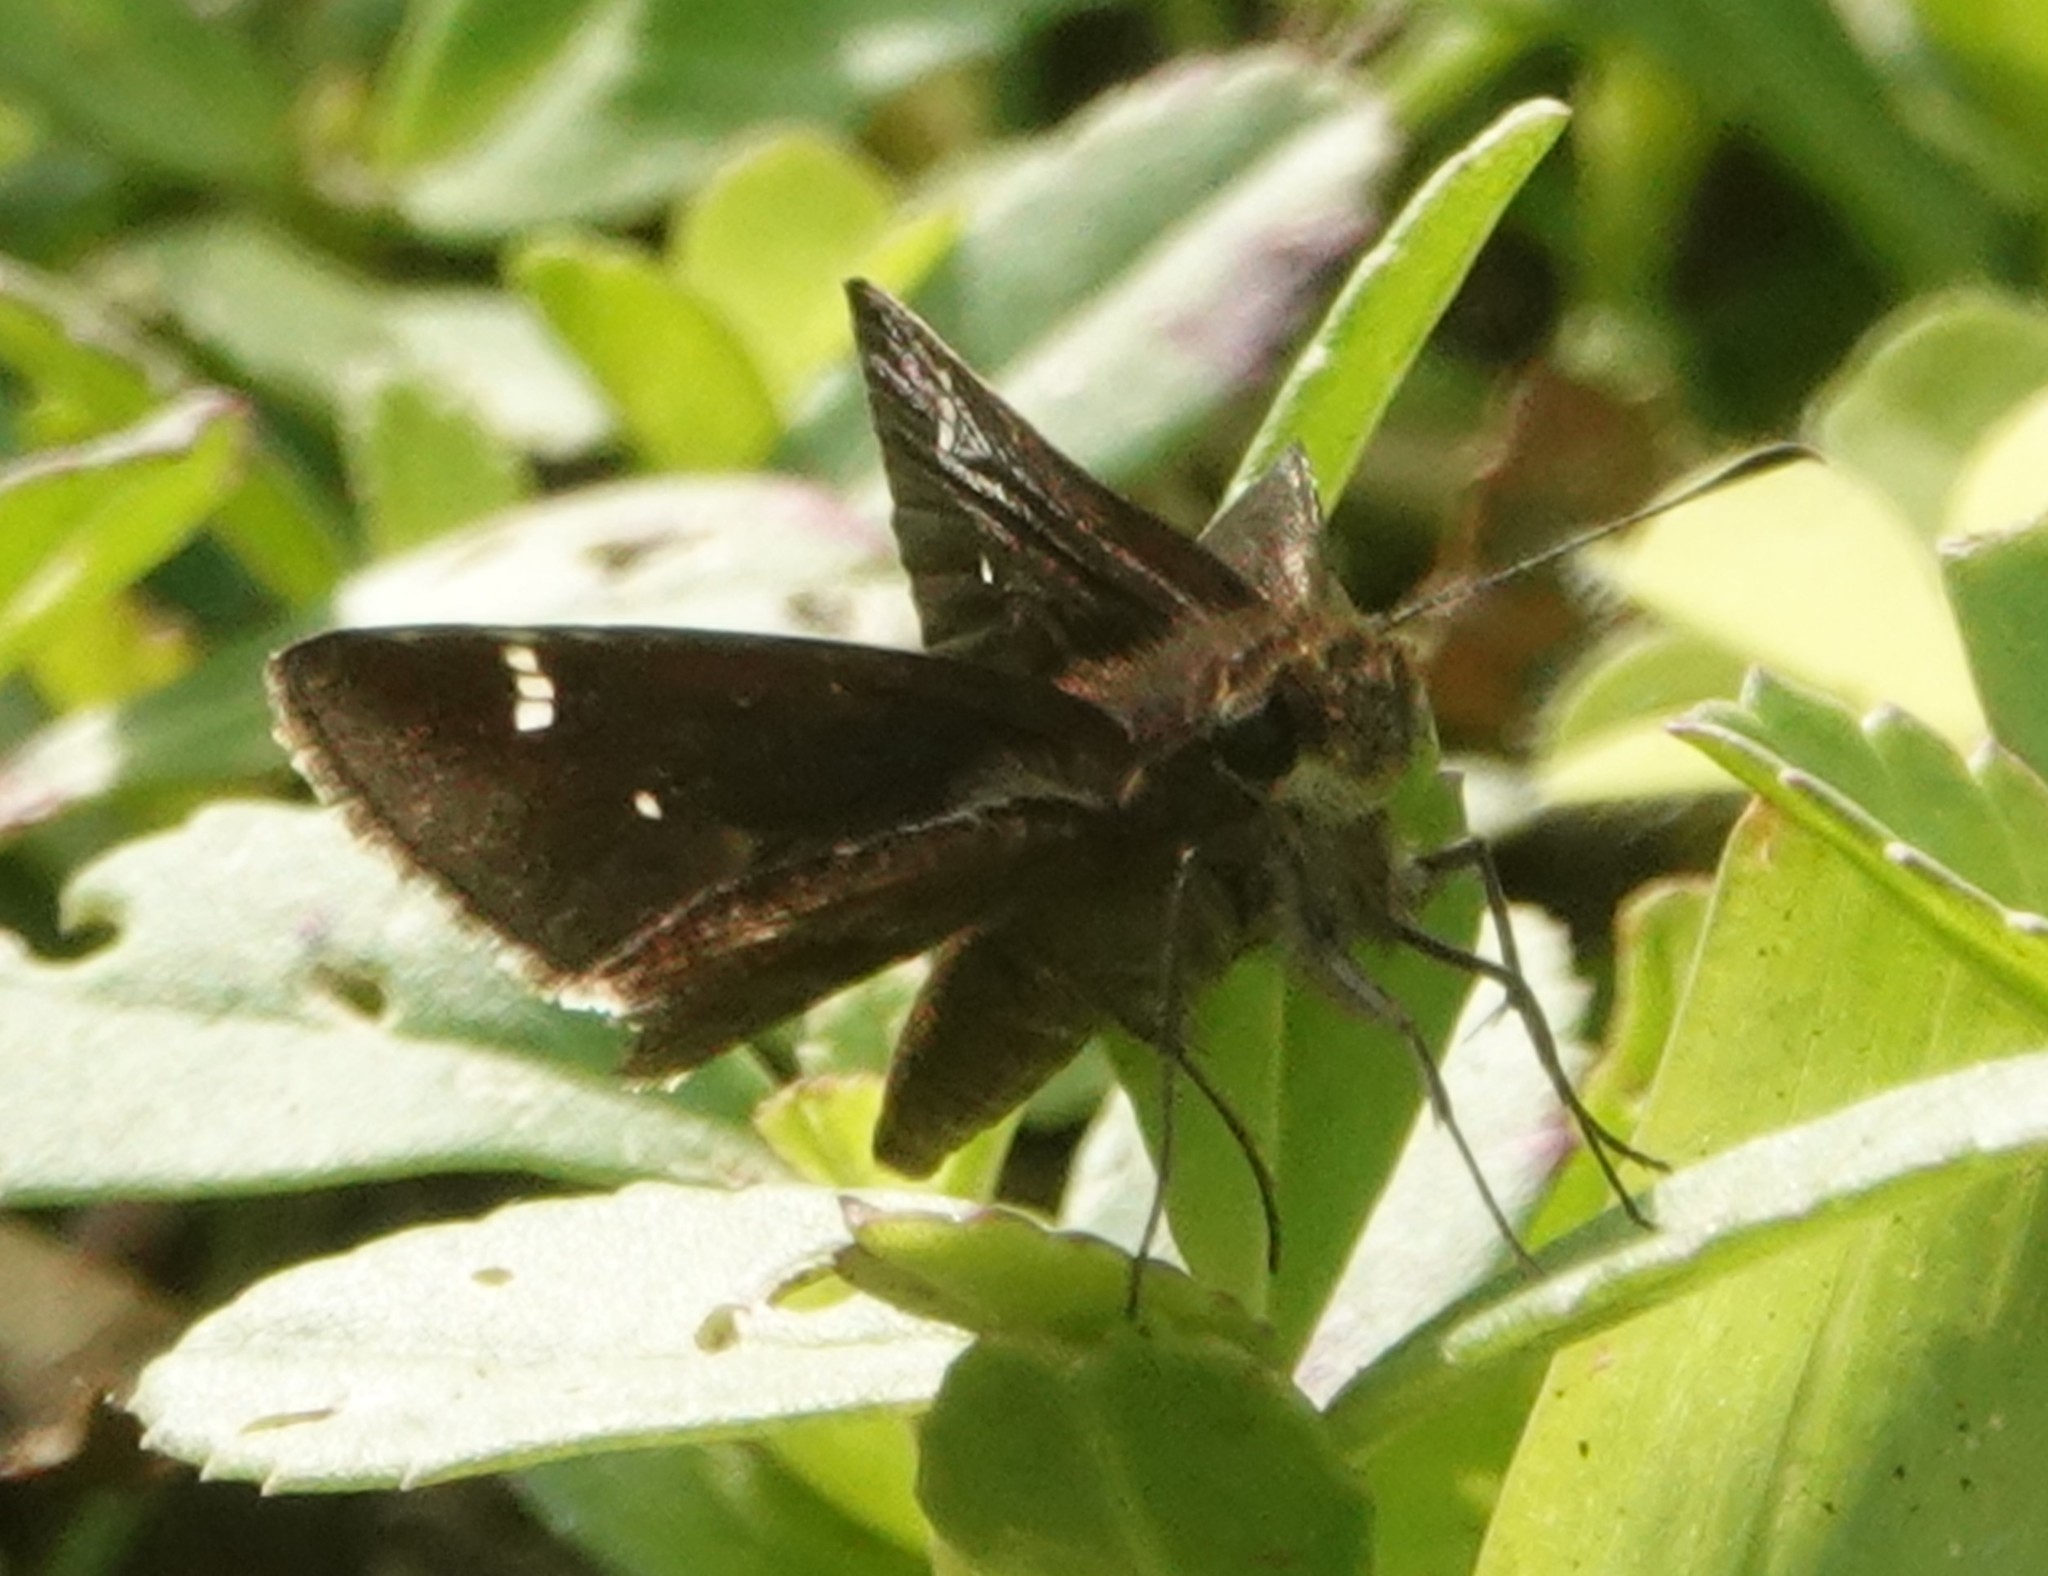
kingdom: Animalia
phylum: Arthropoda
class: Insecta
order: Lepidoptera
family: Hesperiidae
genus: Lerema
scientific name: Lerema accius
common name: Clouded skipper
